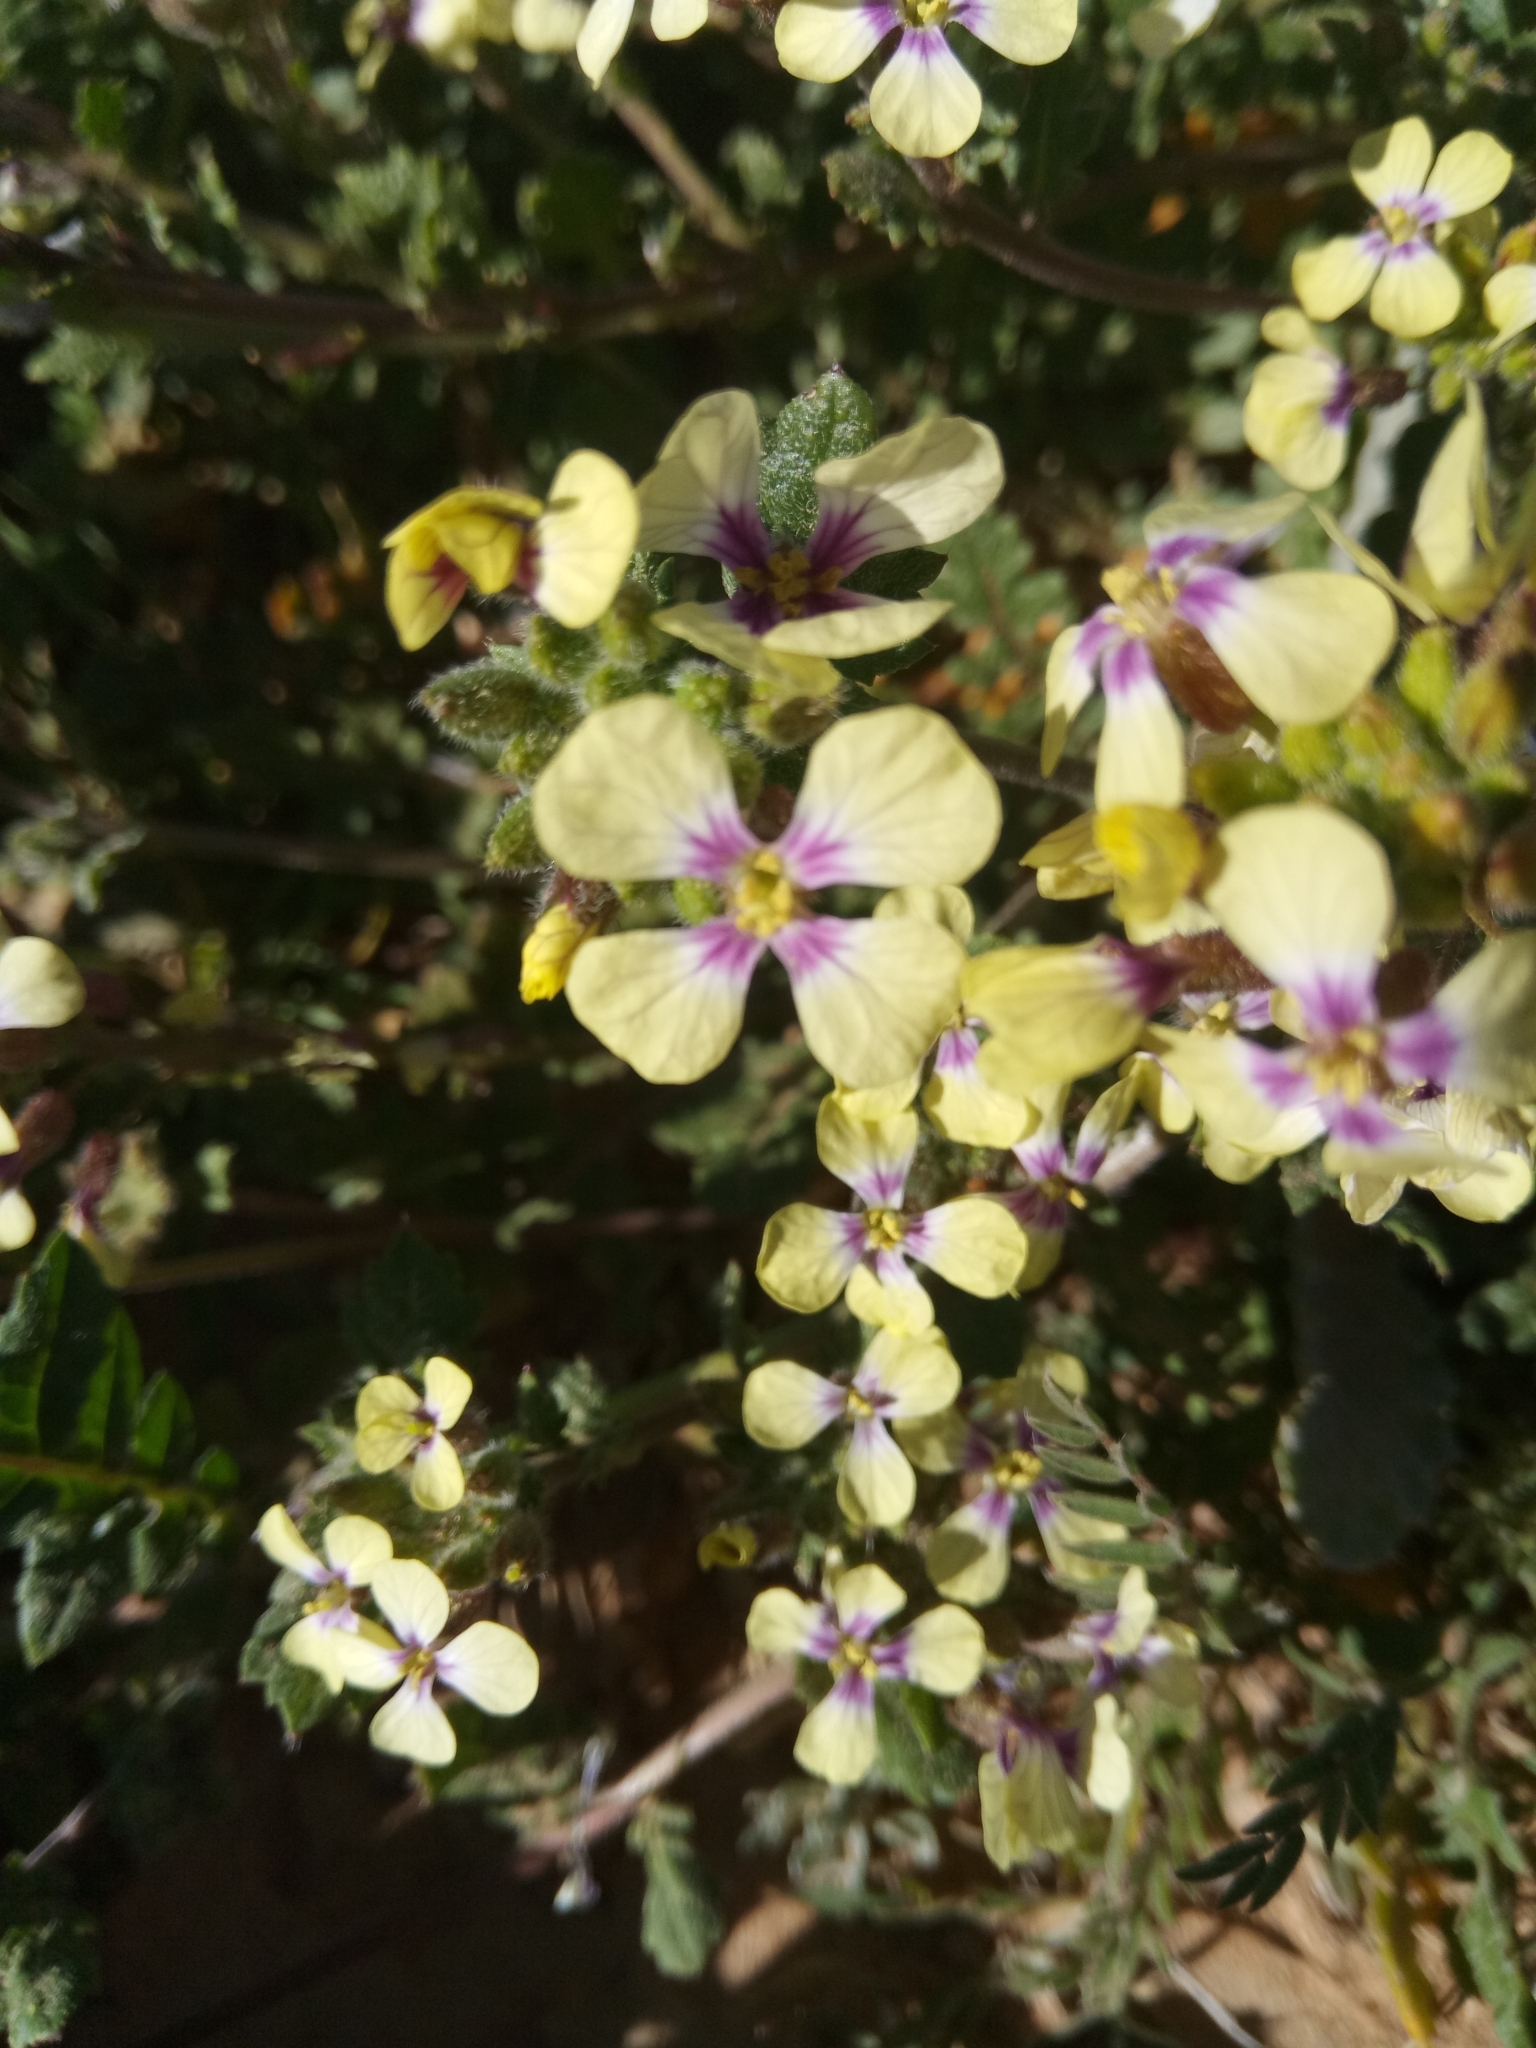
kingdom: Plantae
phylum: Tracheophyta
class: Magnoliopsida
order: Brassicales
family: Brassicaceae
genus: Raphanus
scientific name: Raphanus sativus
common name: Cultivated radish
